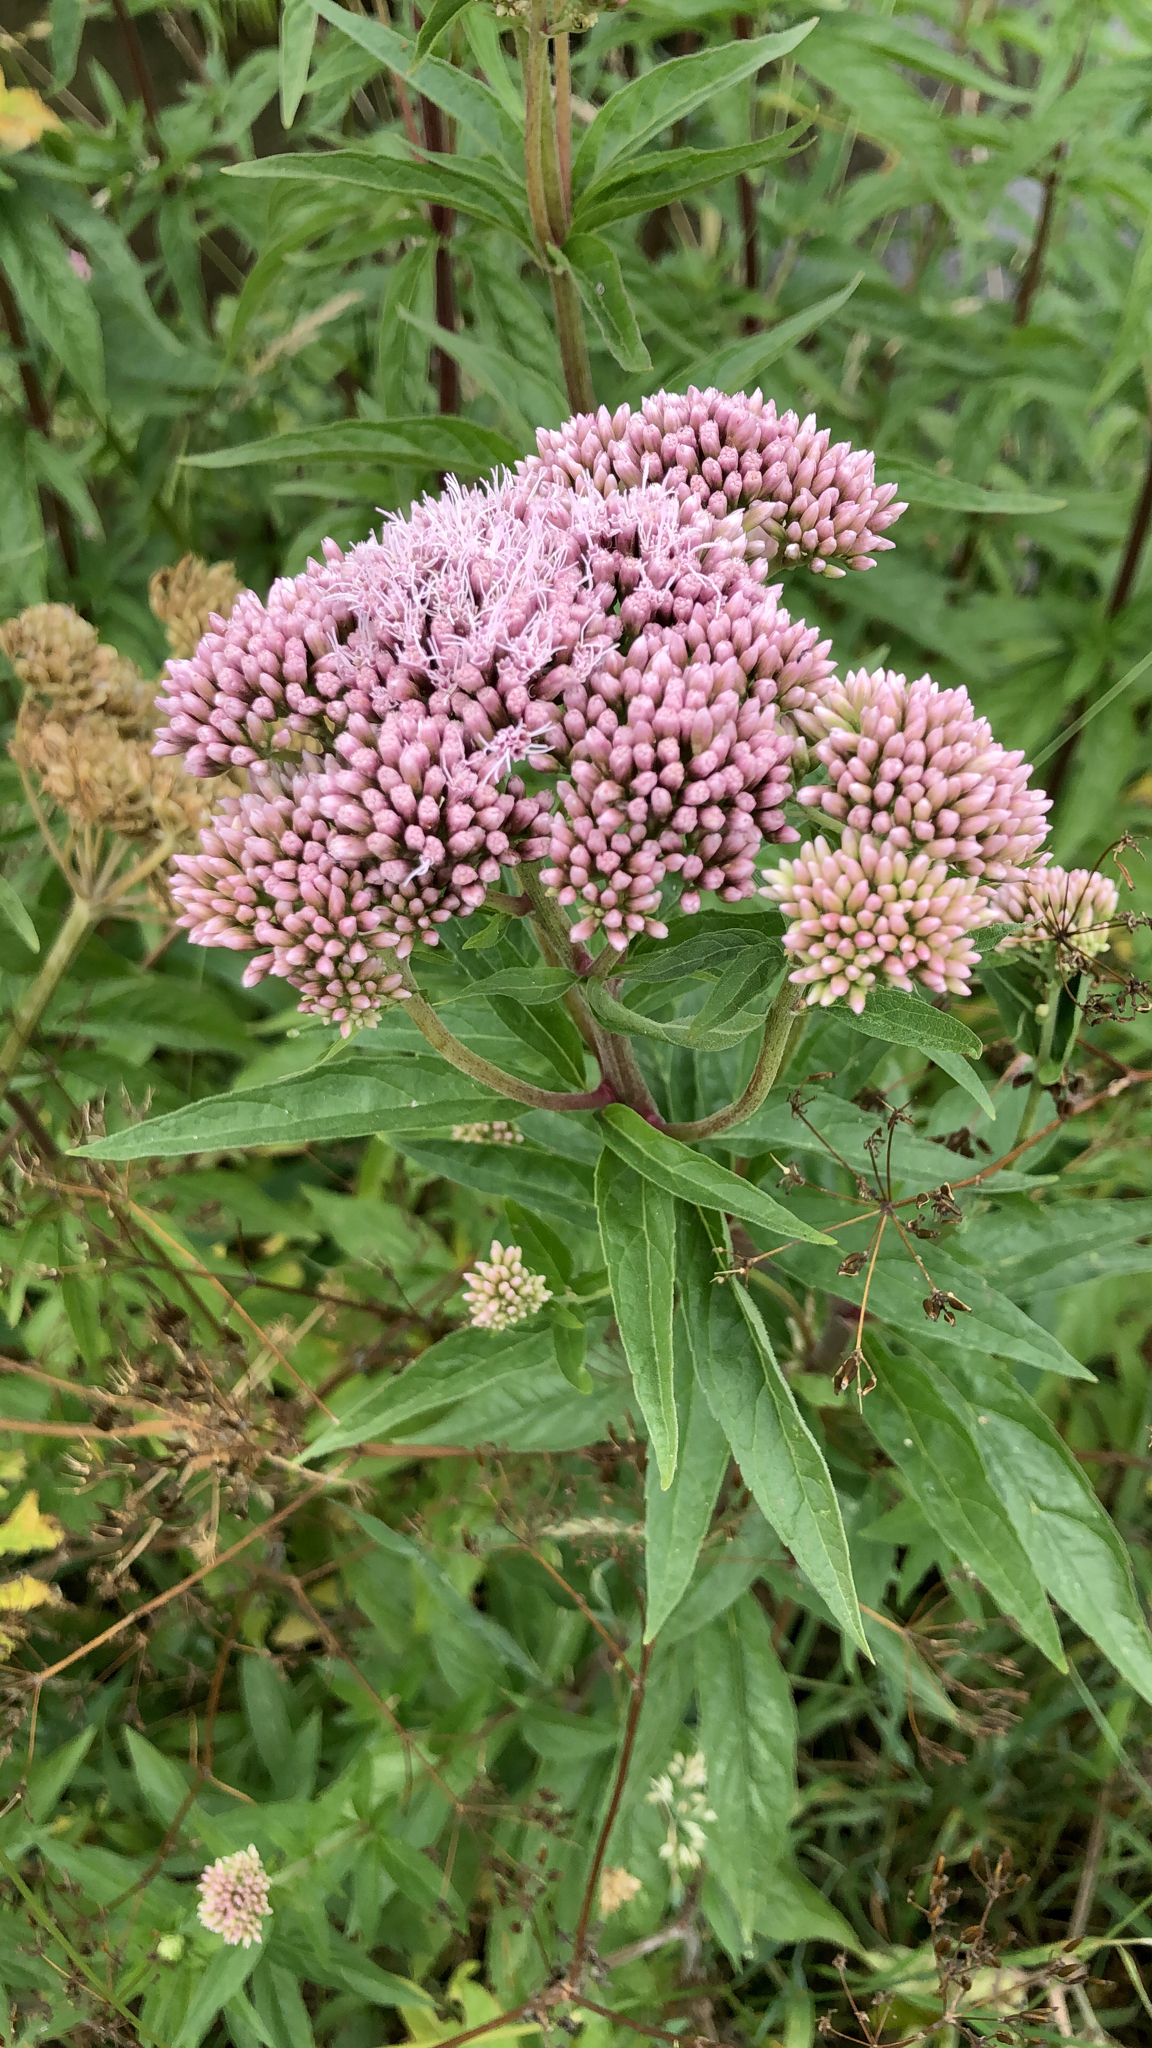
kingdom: Plantae
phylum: Tracheophyta
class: Magnoliopsida
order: Asterales
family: Asteraceae
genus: Eupatorium
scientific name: Eupatorium cannabinum
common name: Hemp-agrimony
